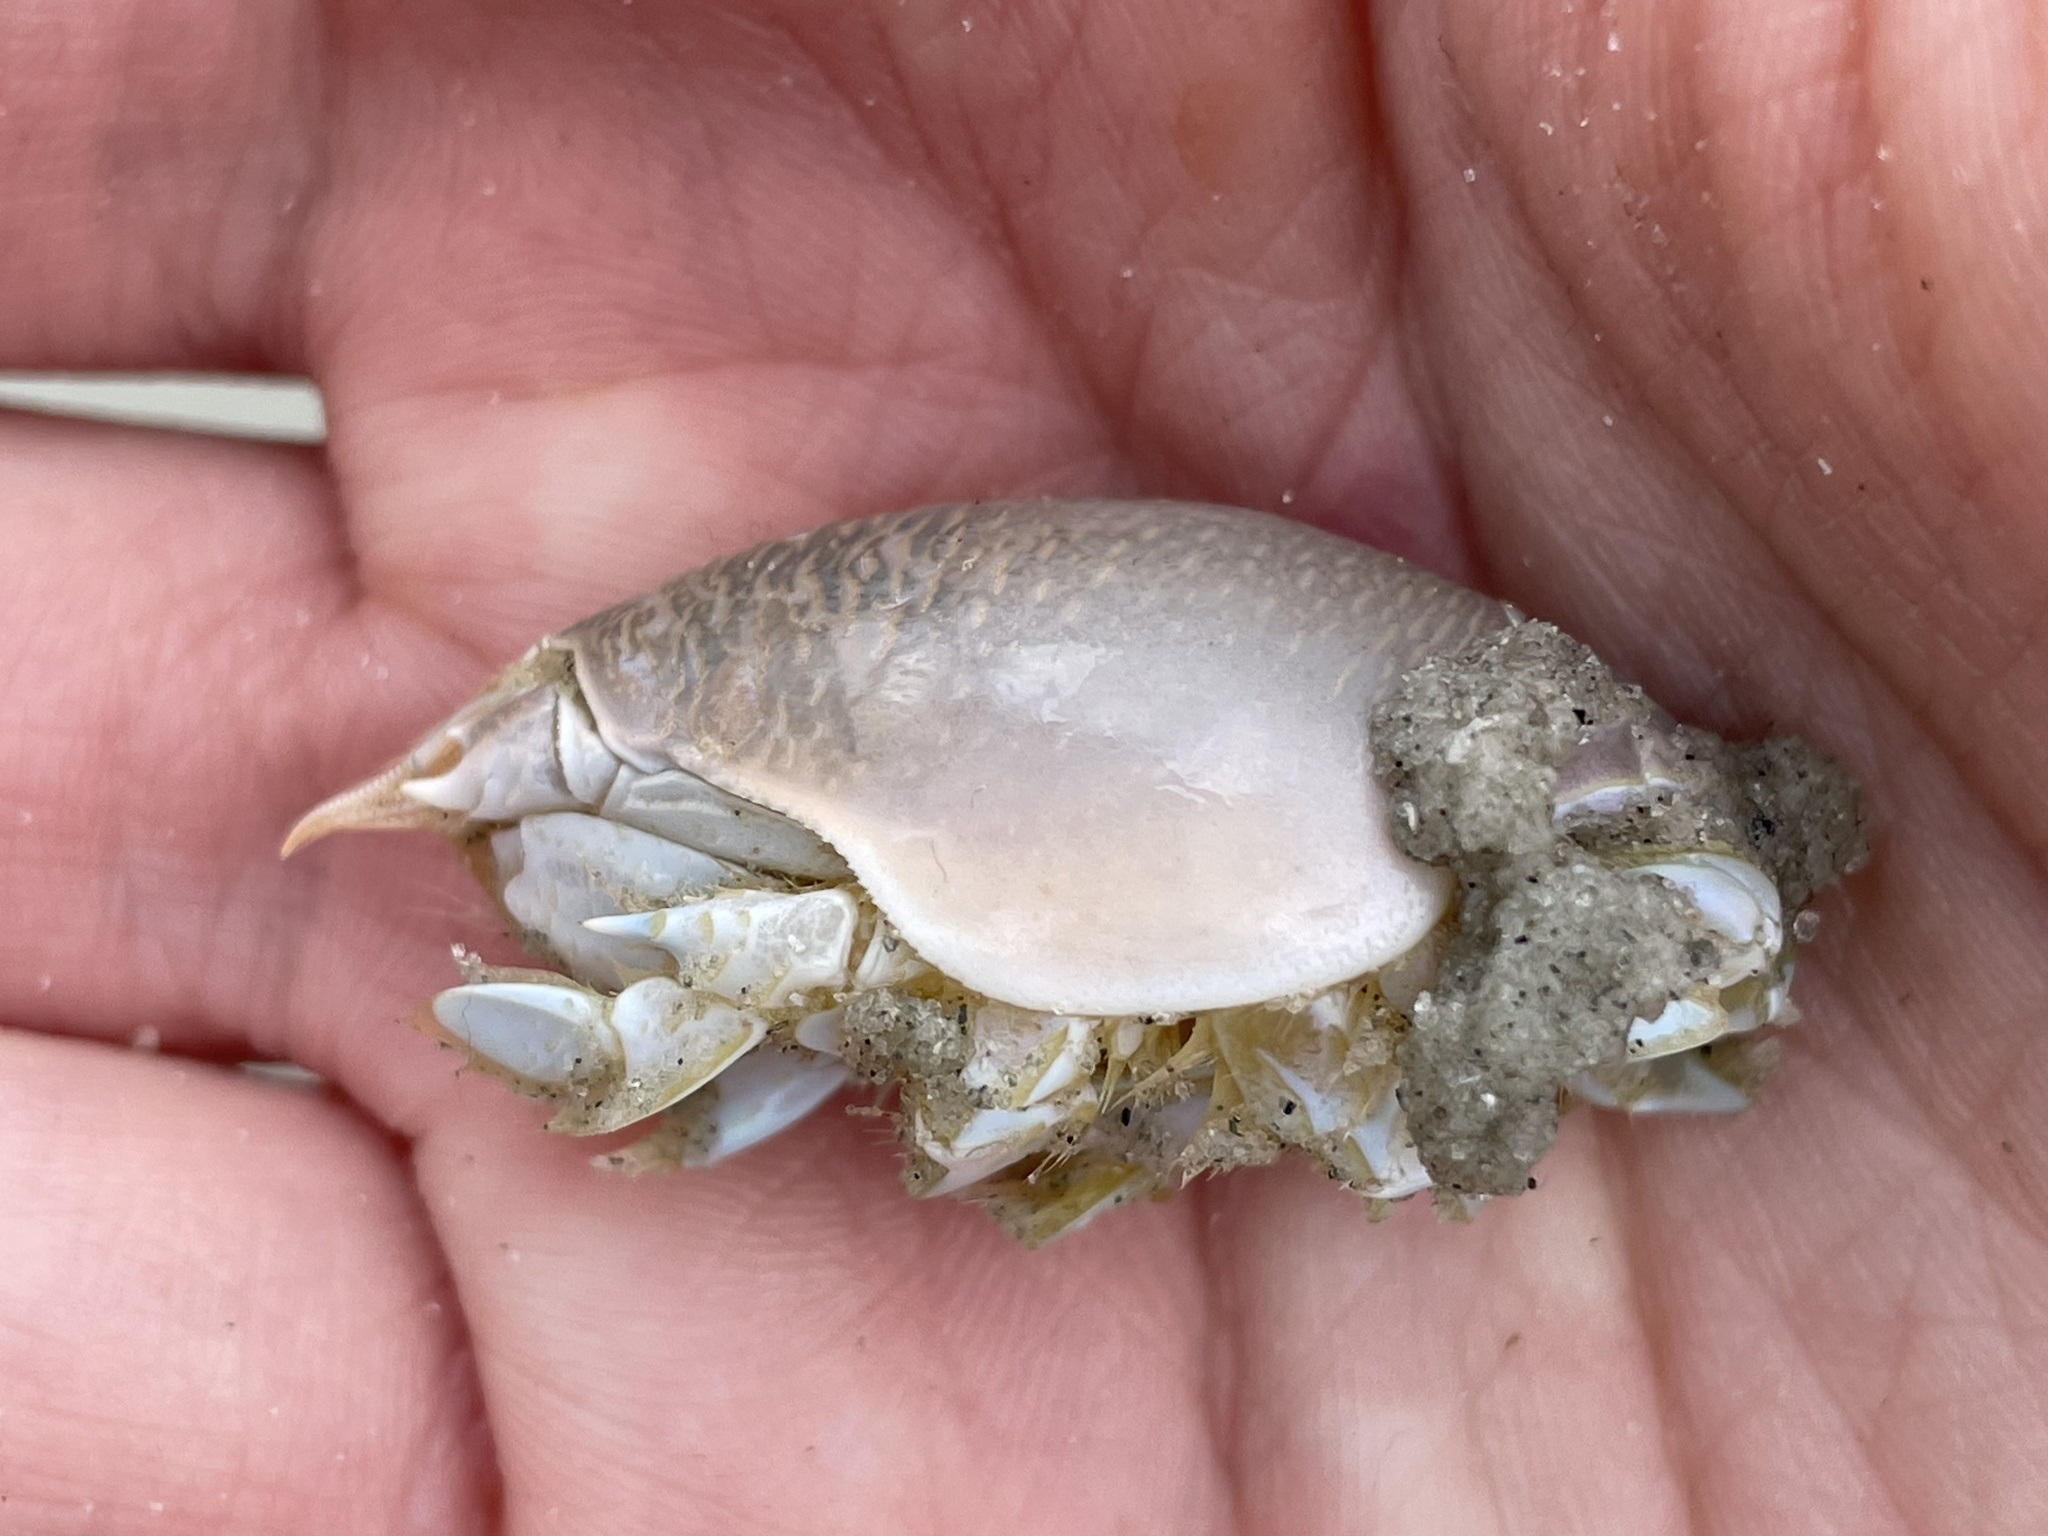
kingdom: Animalia
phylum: Arthropoda
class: Malacostraca
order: Decapoda
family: Hippidae
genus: Emerita
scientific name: Emerita talpoida
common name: Atlantic sand crab
